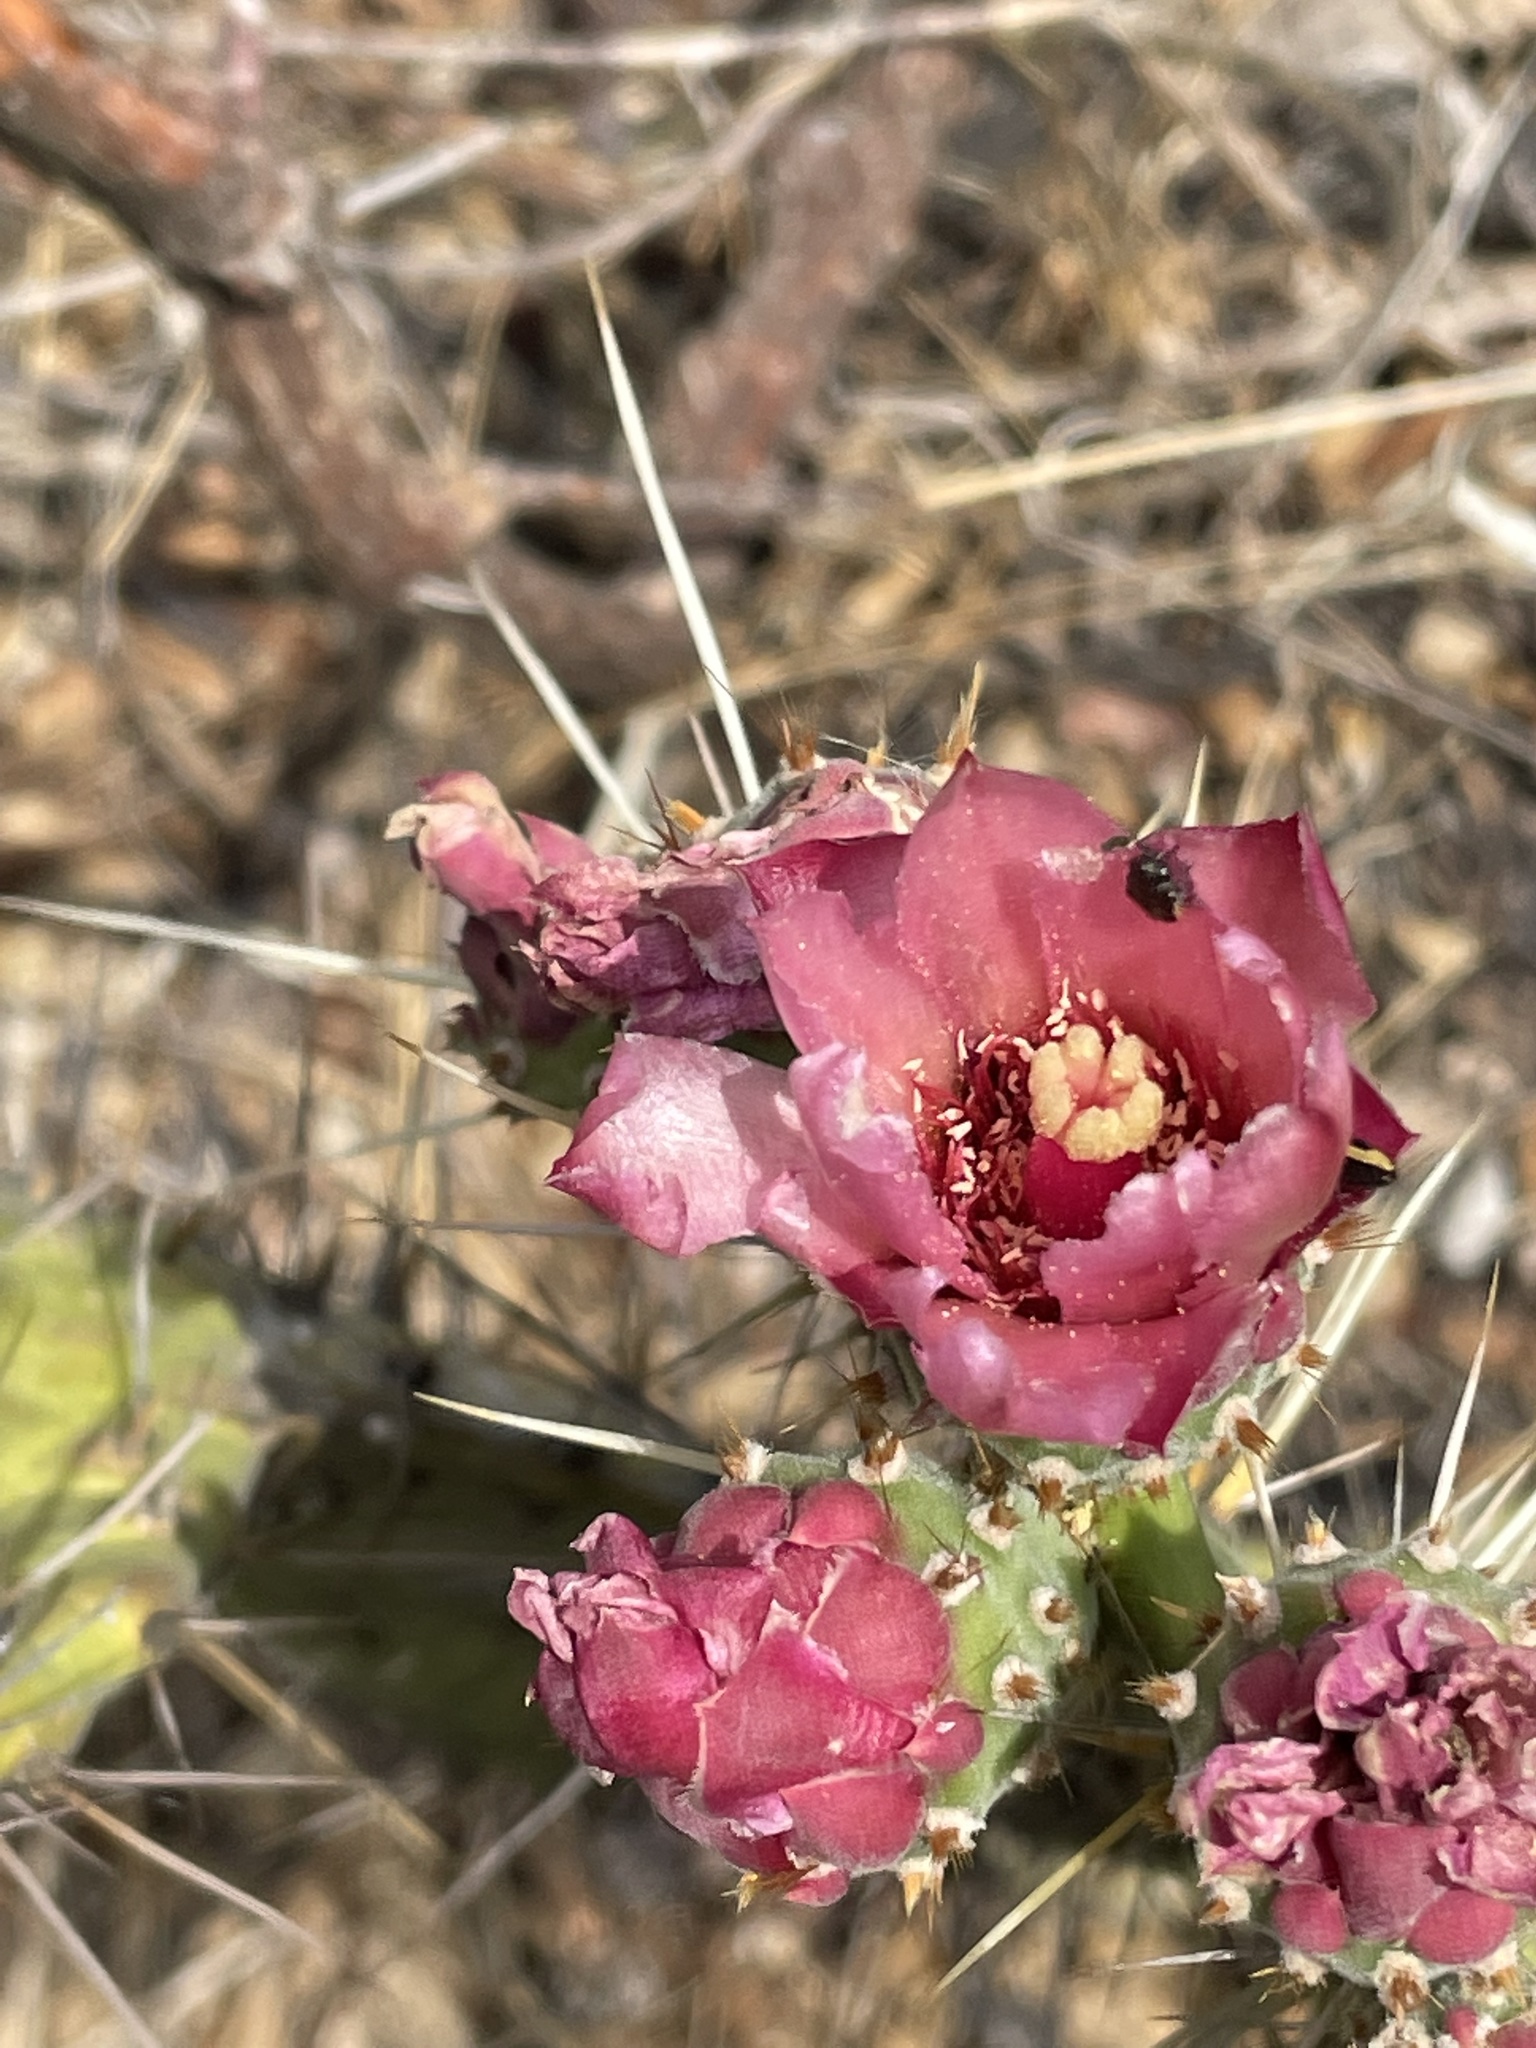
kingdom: Plantae
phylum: Tracheophyta
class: Magnoliopsida
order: Caryophyllales
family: Cactaceae
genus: Opuntia
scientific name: Opuntia depressa
